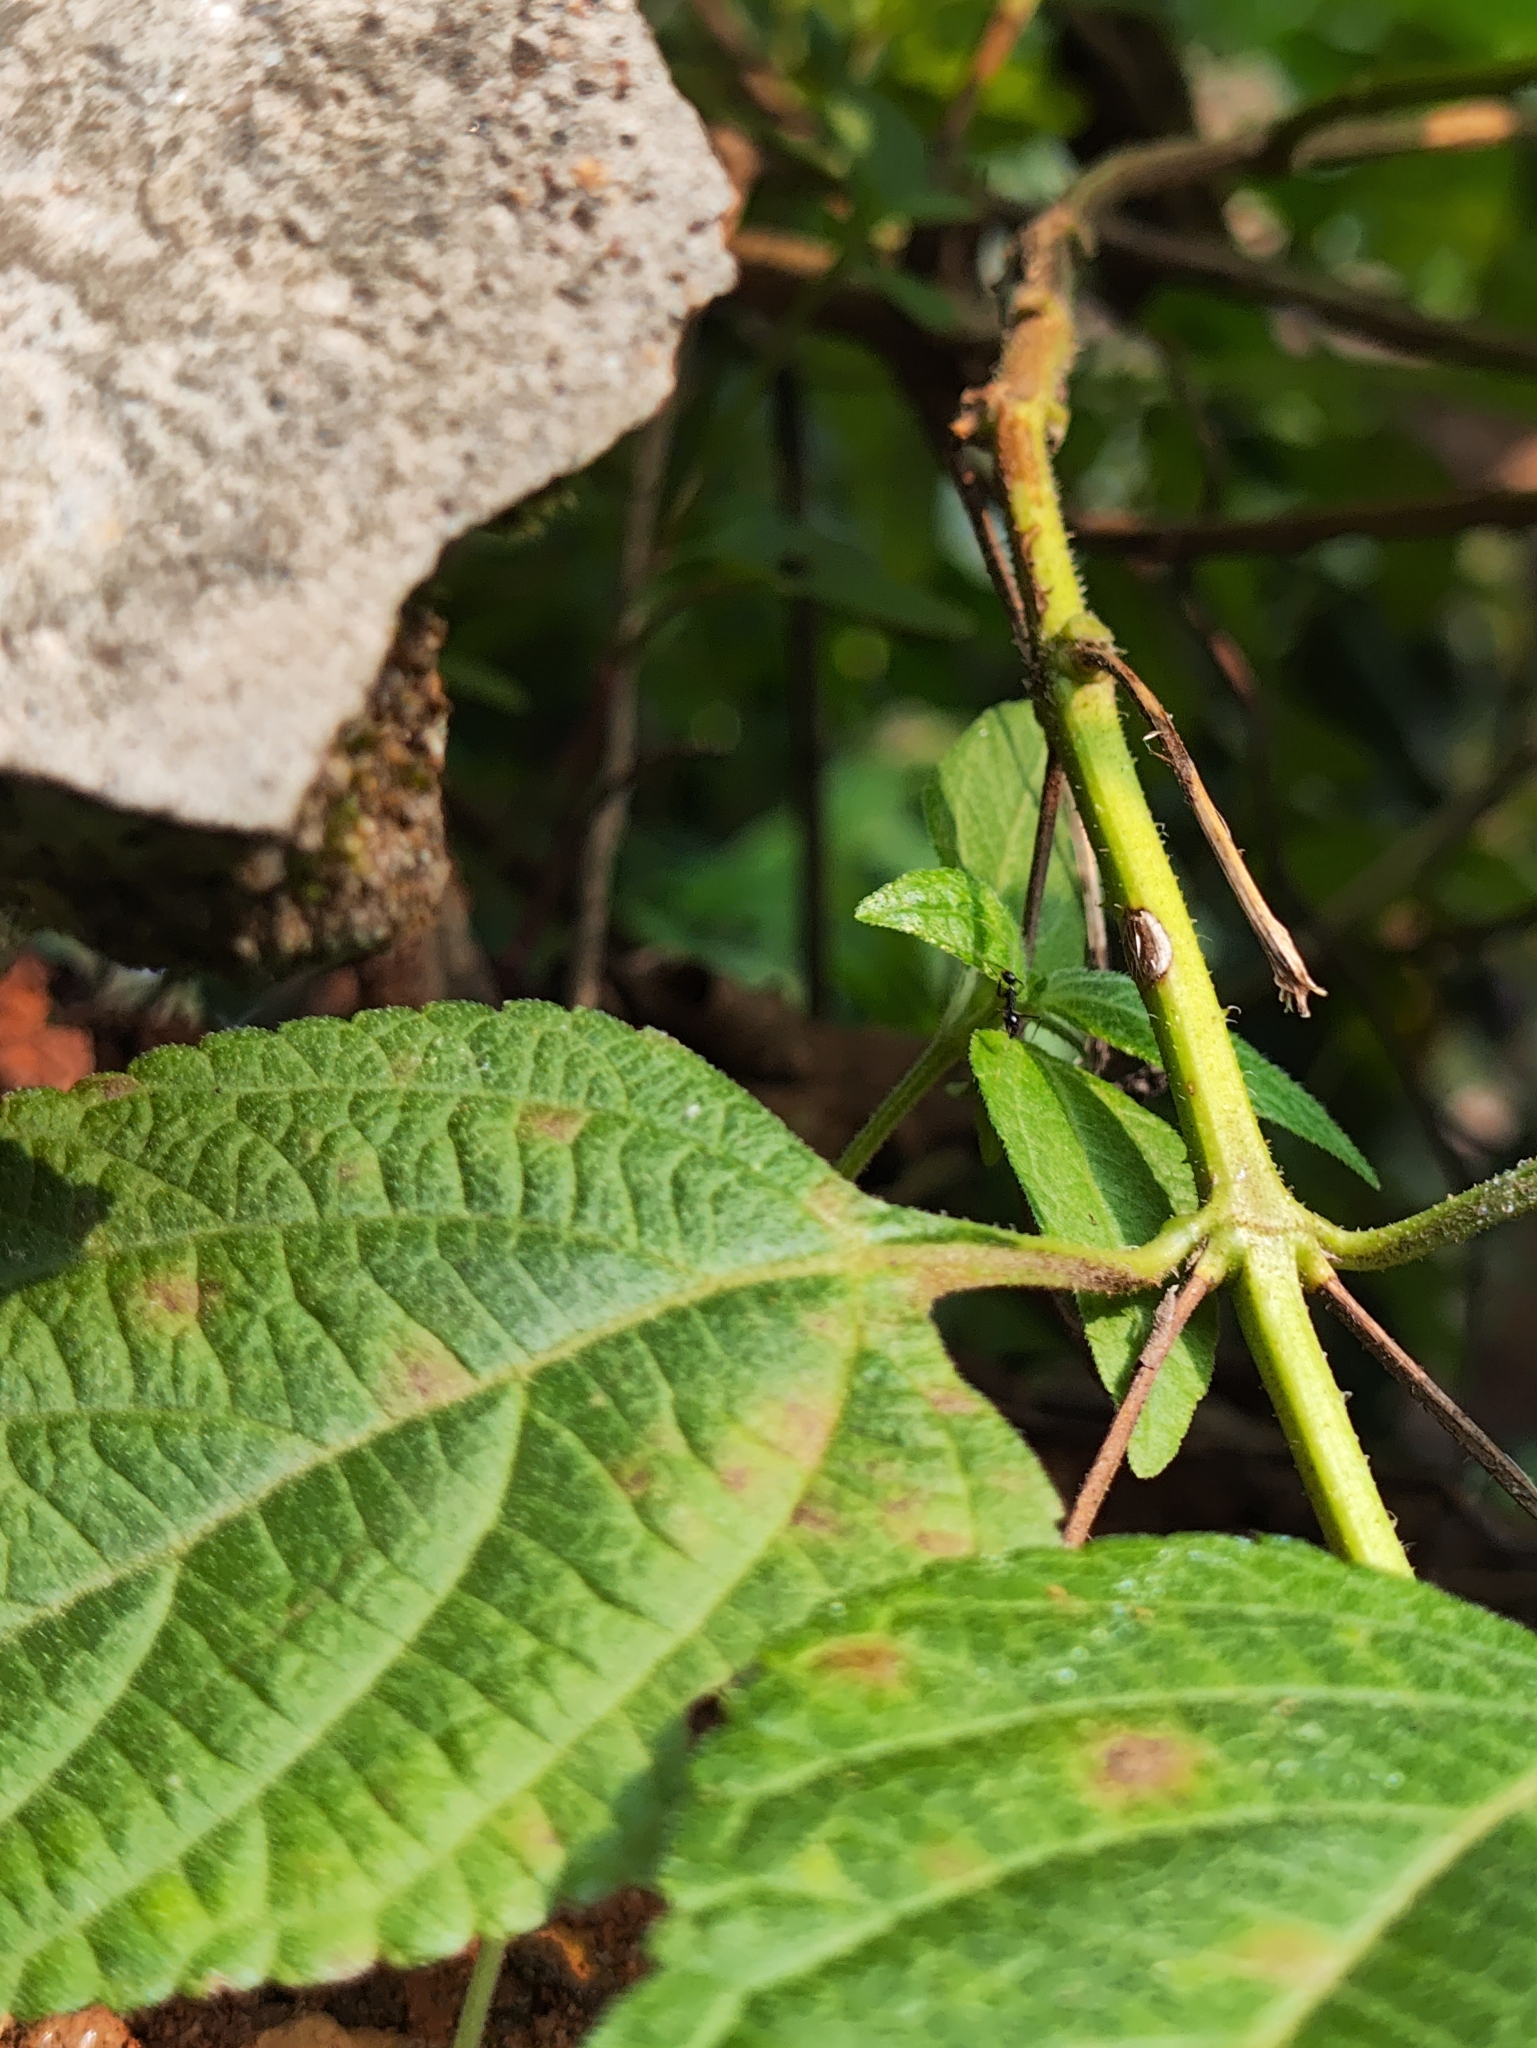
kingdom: Animalia
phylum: Arthropoda
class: Insecta
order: Hymenoptera
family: Formicidae
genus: Paratrechina
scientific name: Paratrechina longicornis
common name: Longhorned crazy ant
